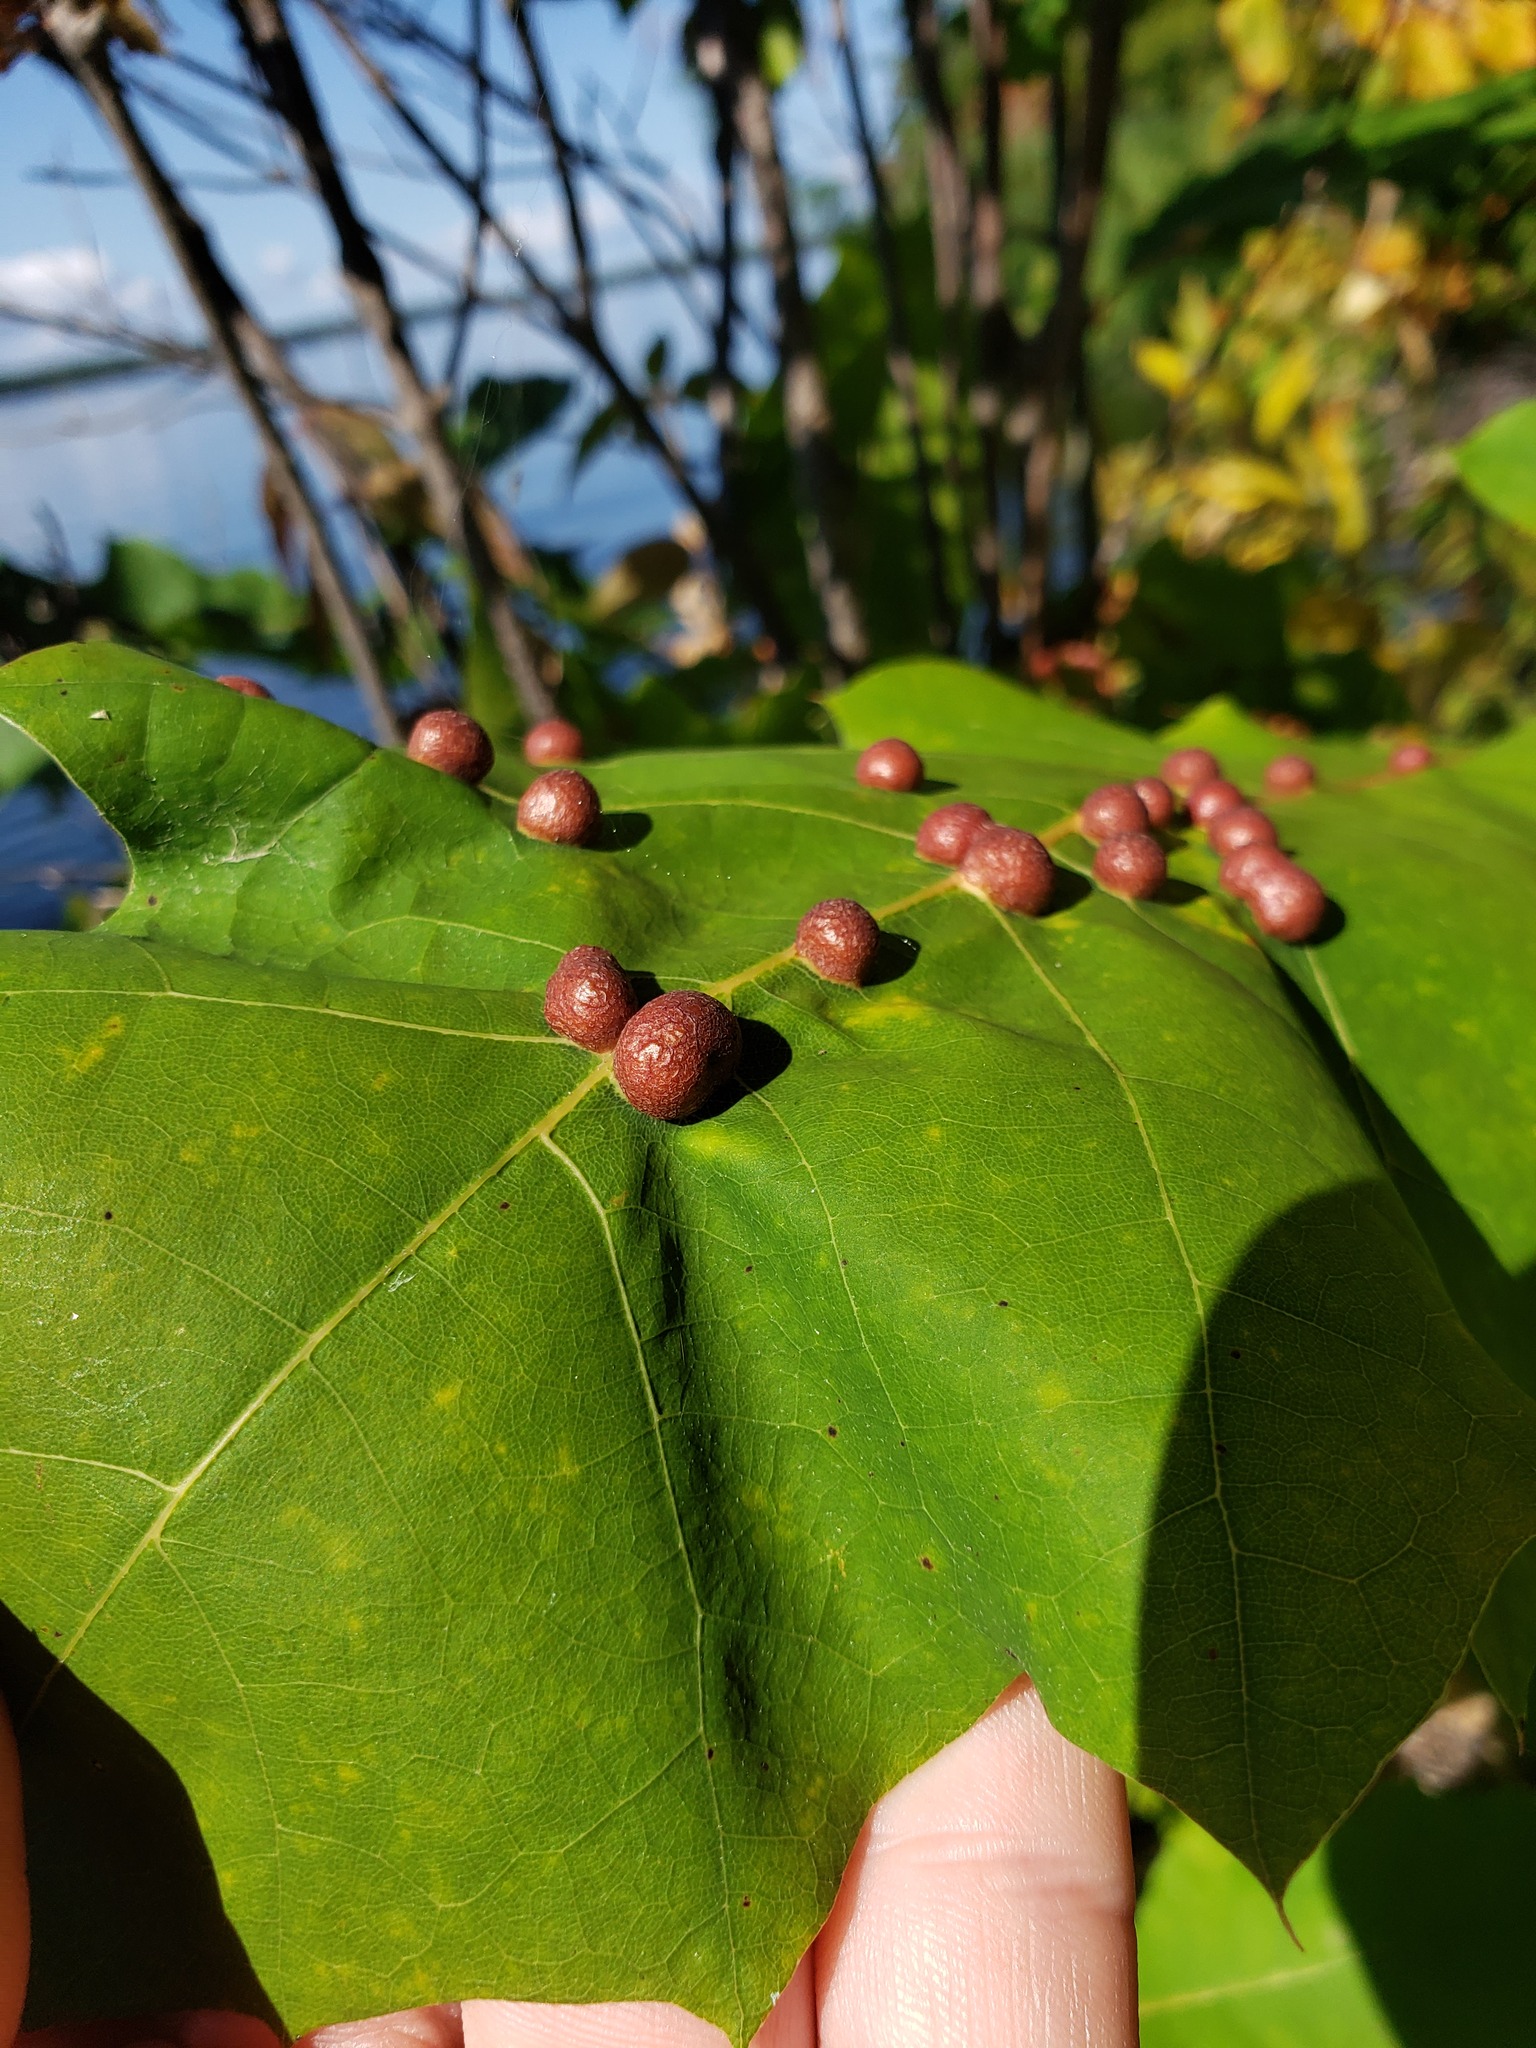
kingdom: Animalia
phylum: Arthropoda
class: Insecta
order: Diptera
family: Cecidomyiidae
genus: Polystepha
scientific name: Polystepha pilulae
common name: Oak leaf gall midge
